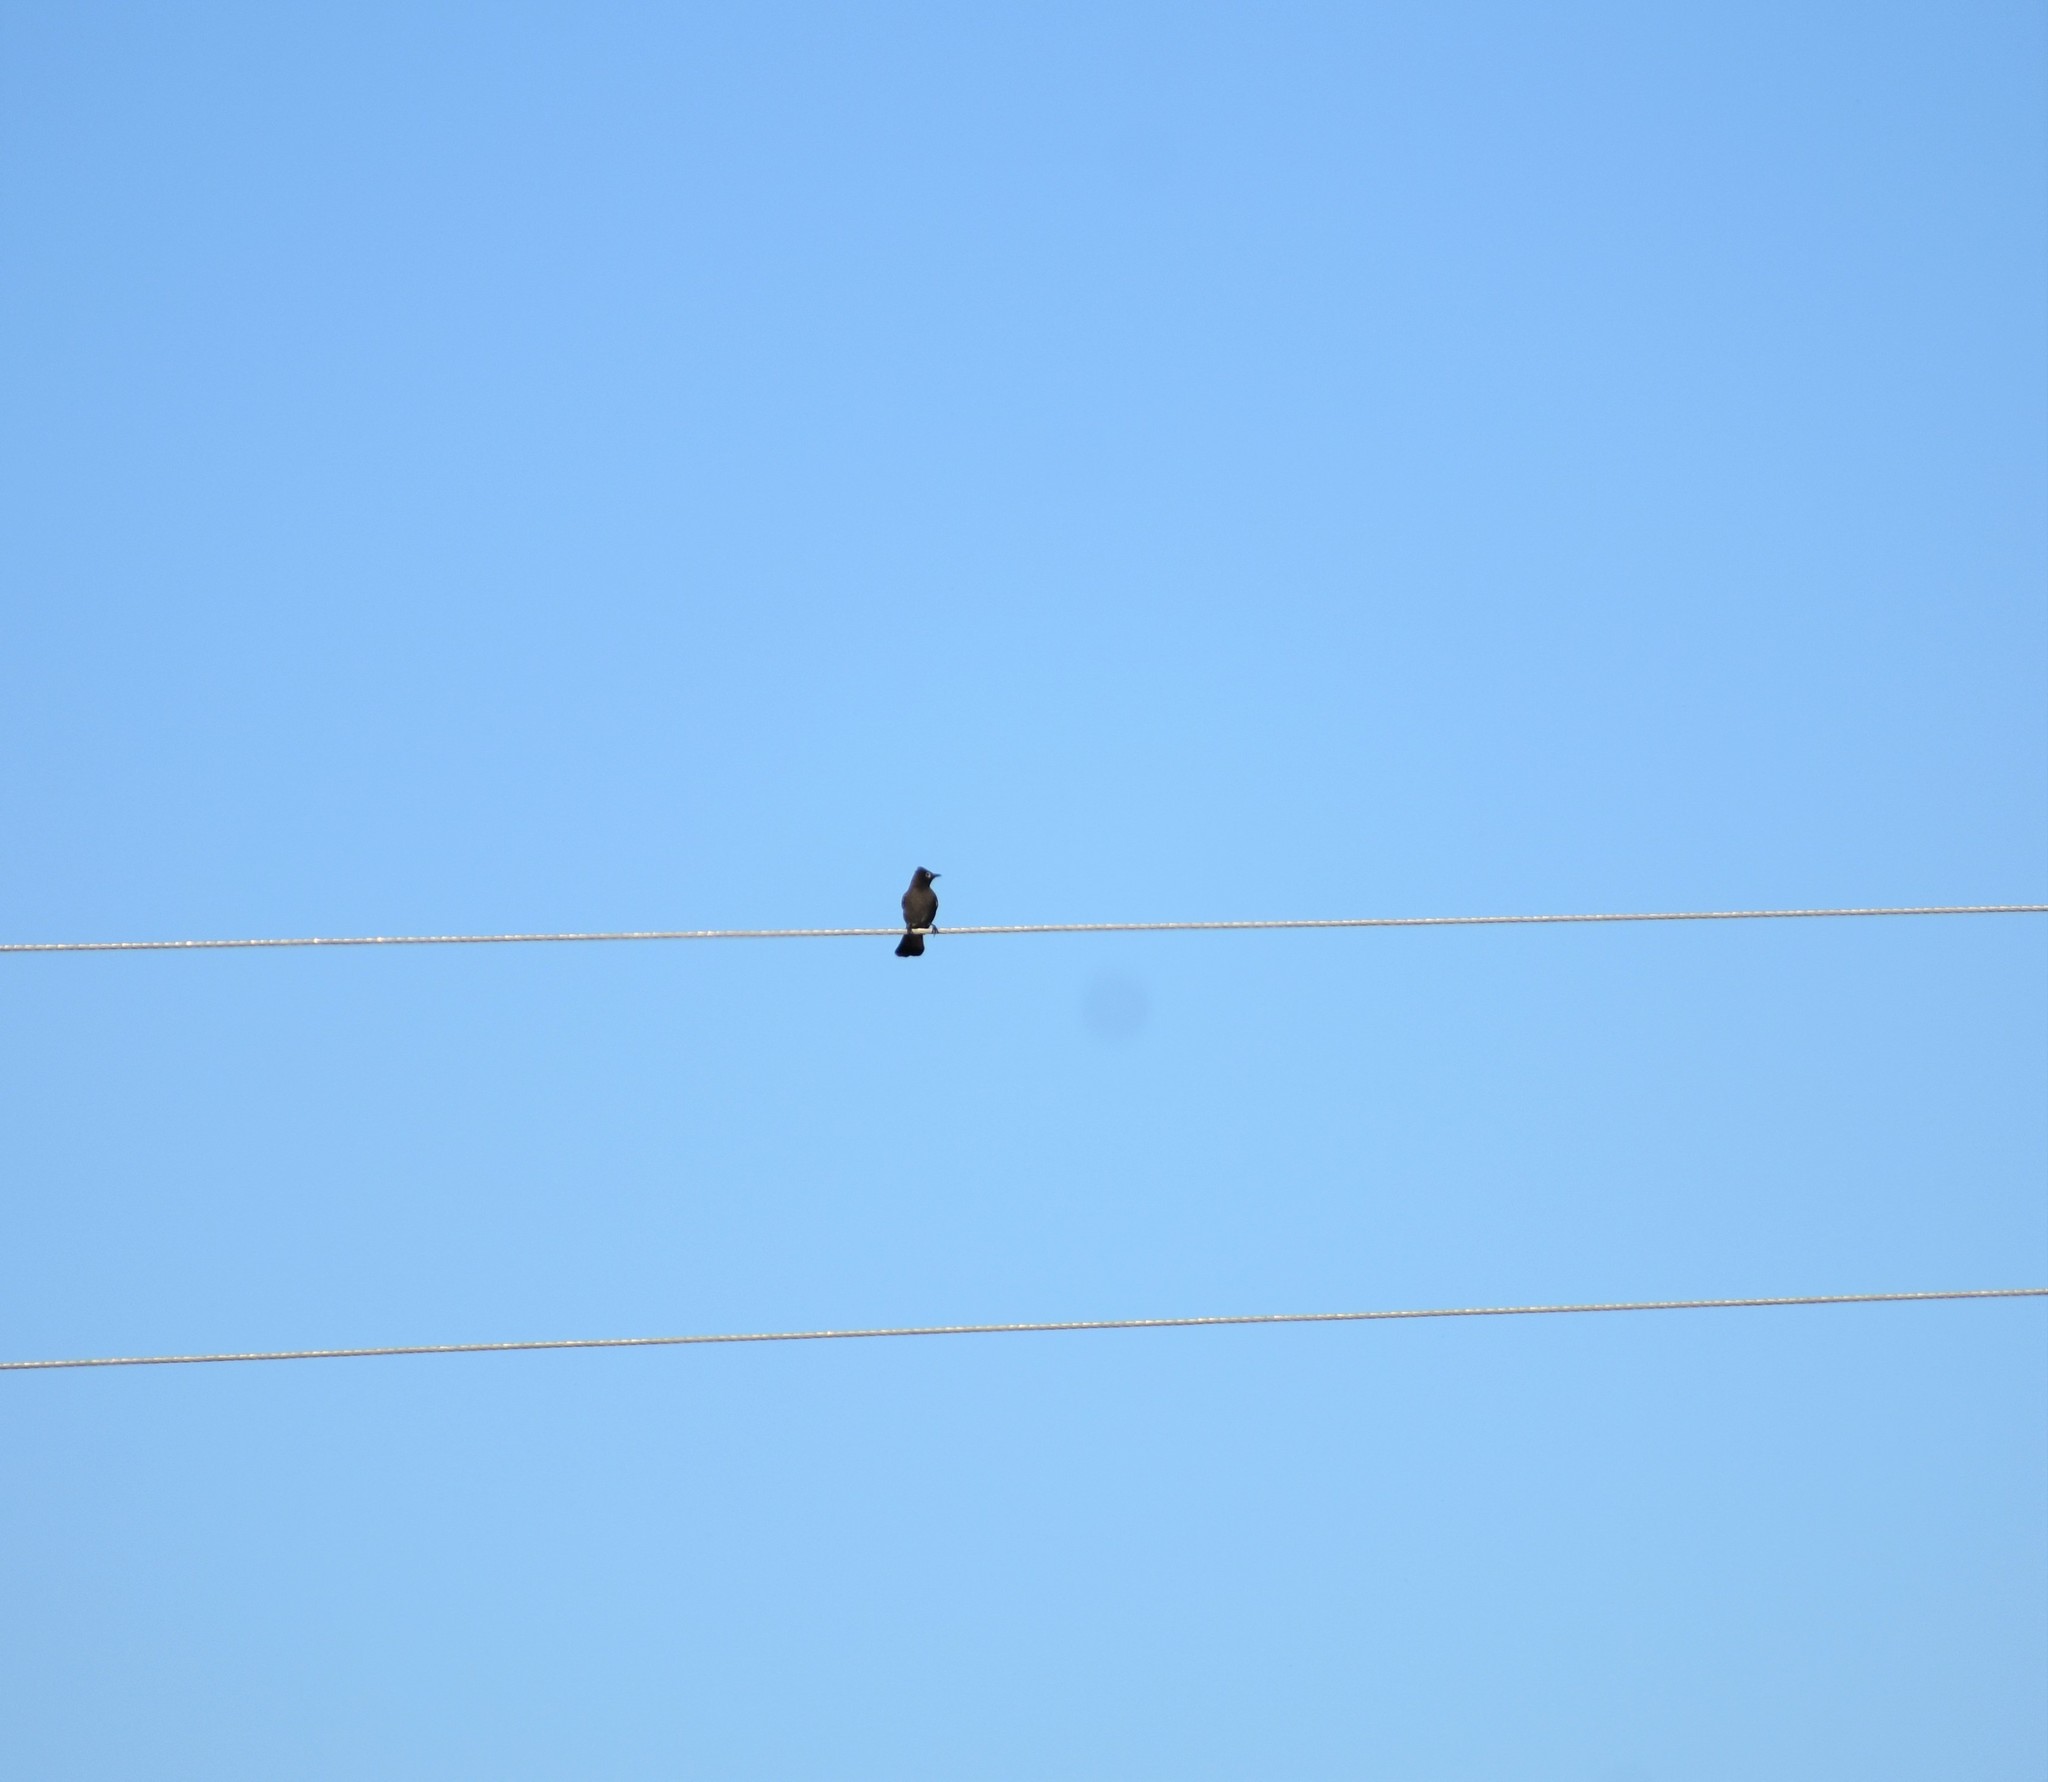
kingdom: Animalia
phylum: Chordata
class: Aves
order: Passeriformes
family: Pycnonotidae
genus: Pycnonotus
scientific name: Pycnonotus capensis
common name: Cape bulbul
